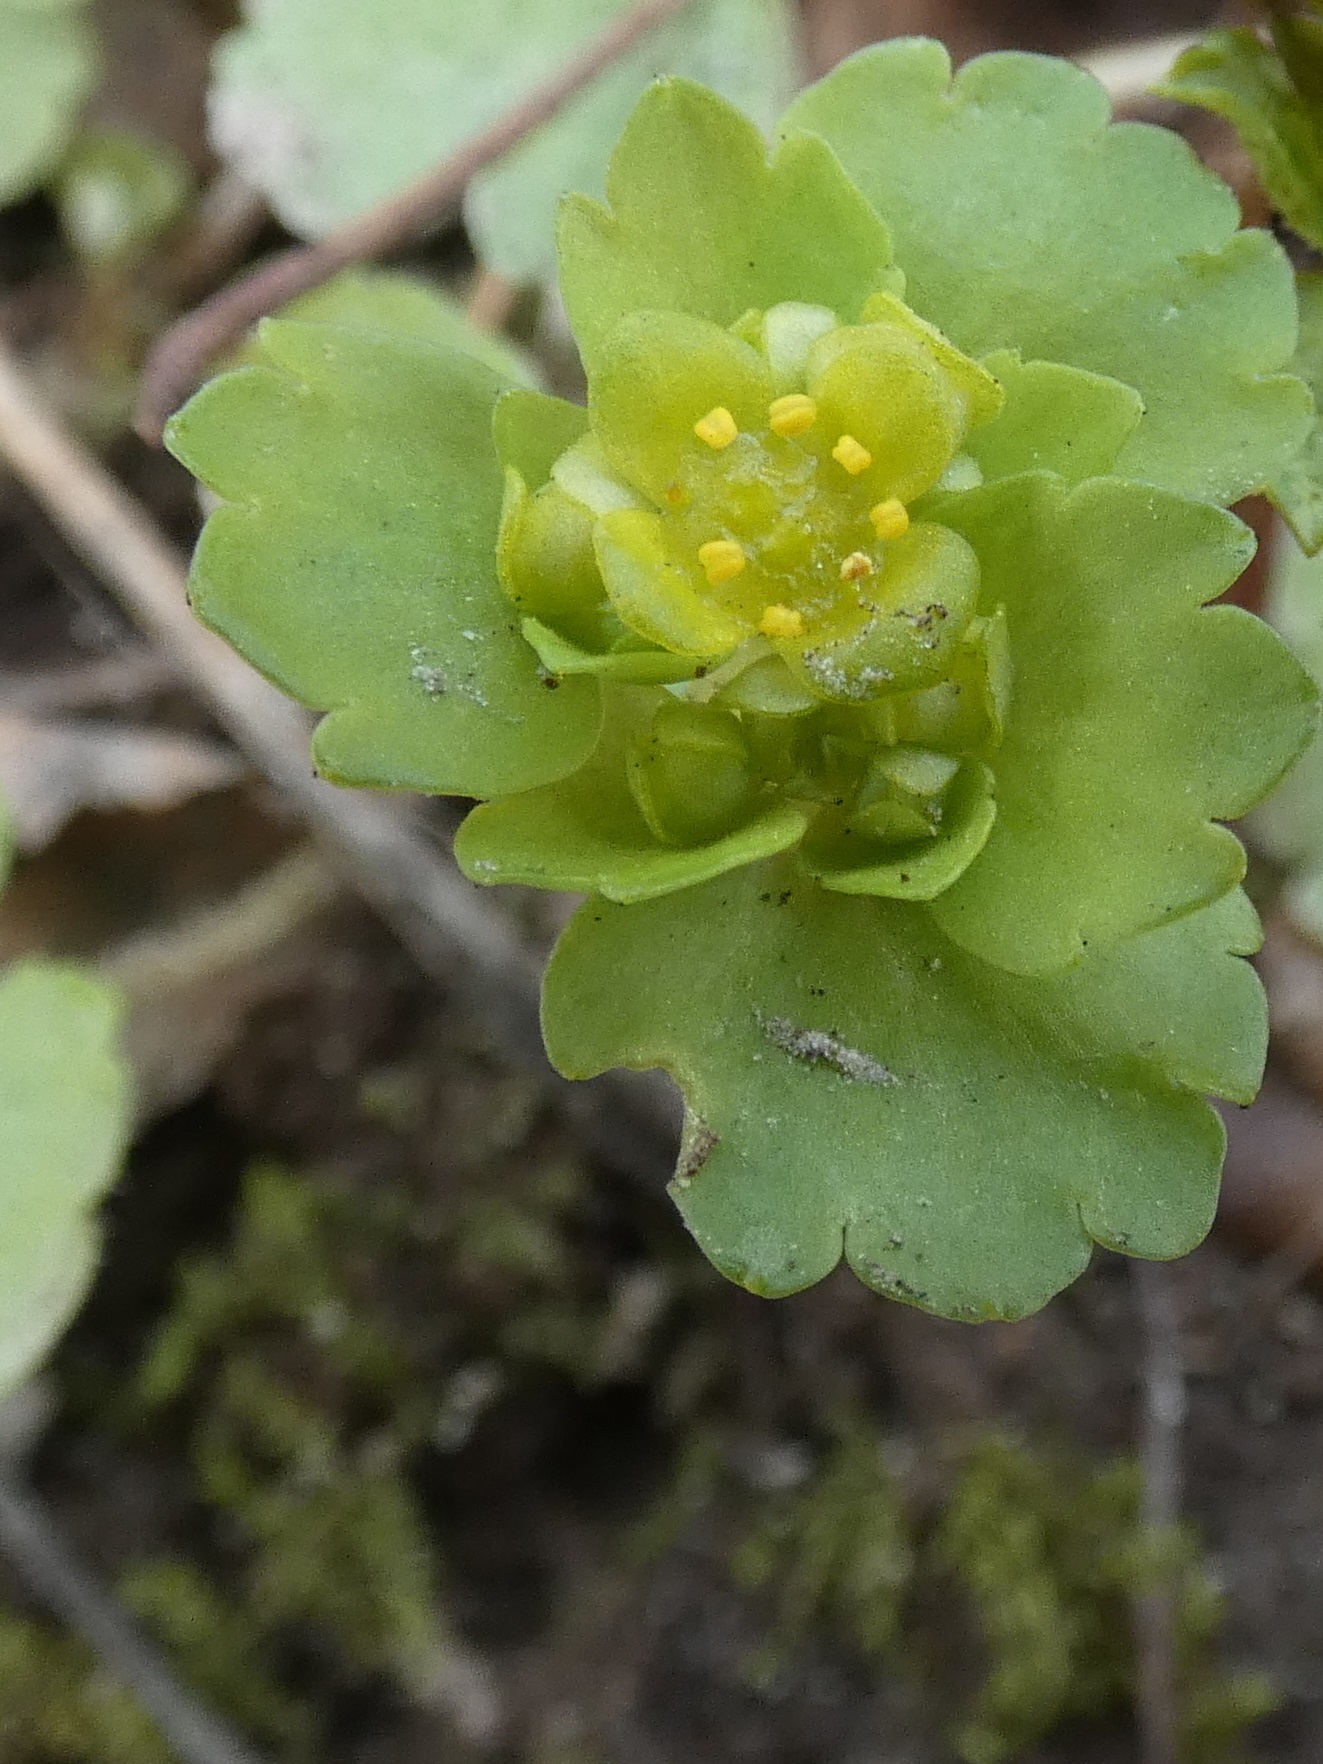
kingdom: Plantae
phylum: Tracheophyta
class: Magnoliopsida
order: Saxifragales
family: Saxifragaceae
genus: Chrysosplenium
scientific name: Chrysosplenium alternifolium
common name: Alternate-leaved golden-saxifrage
